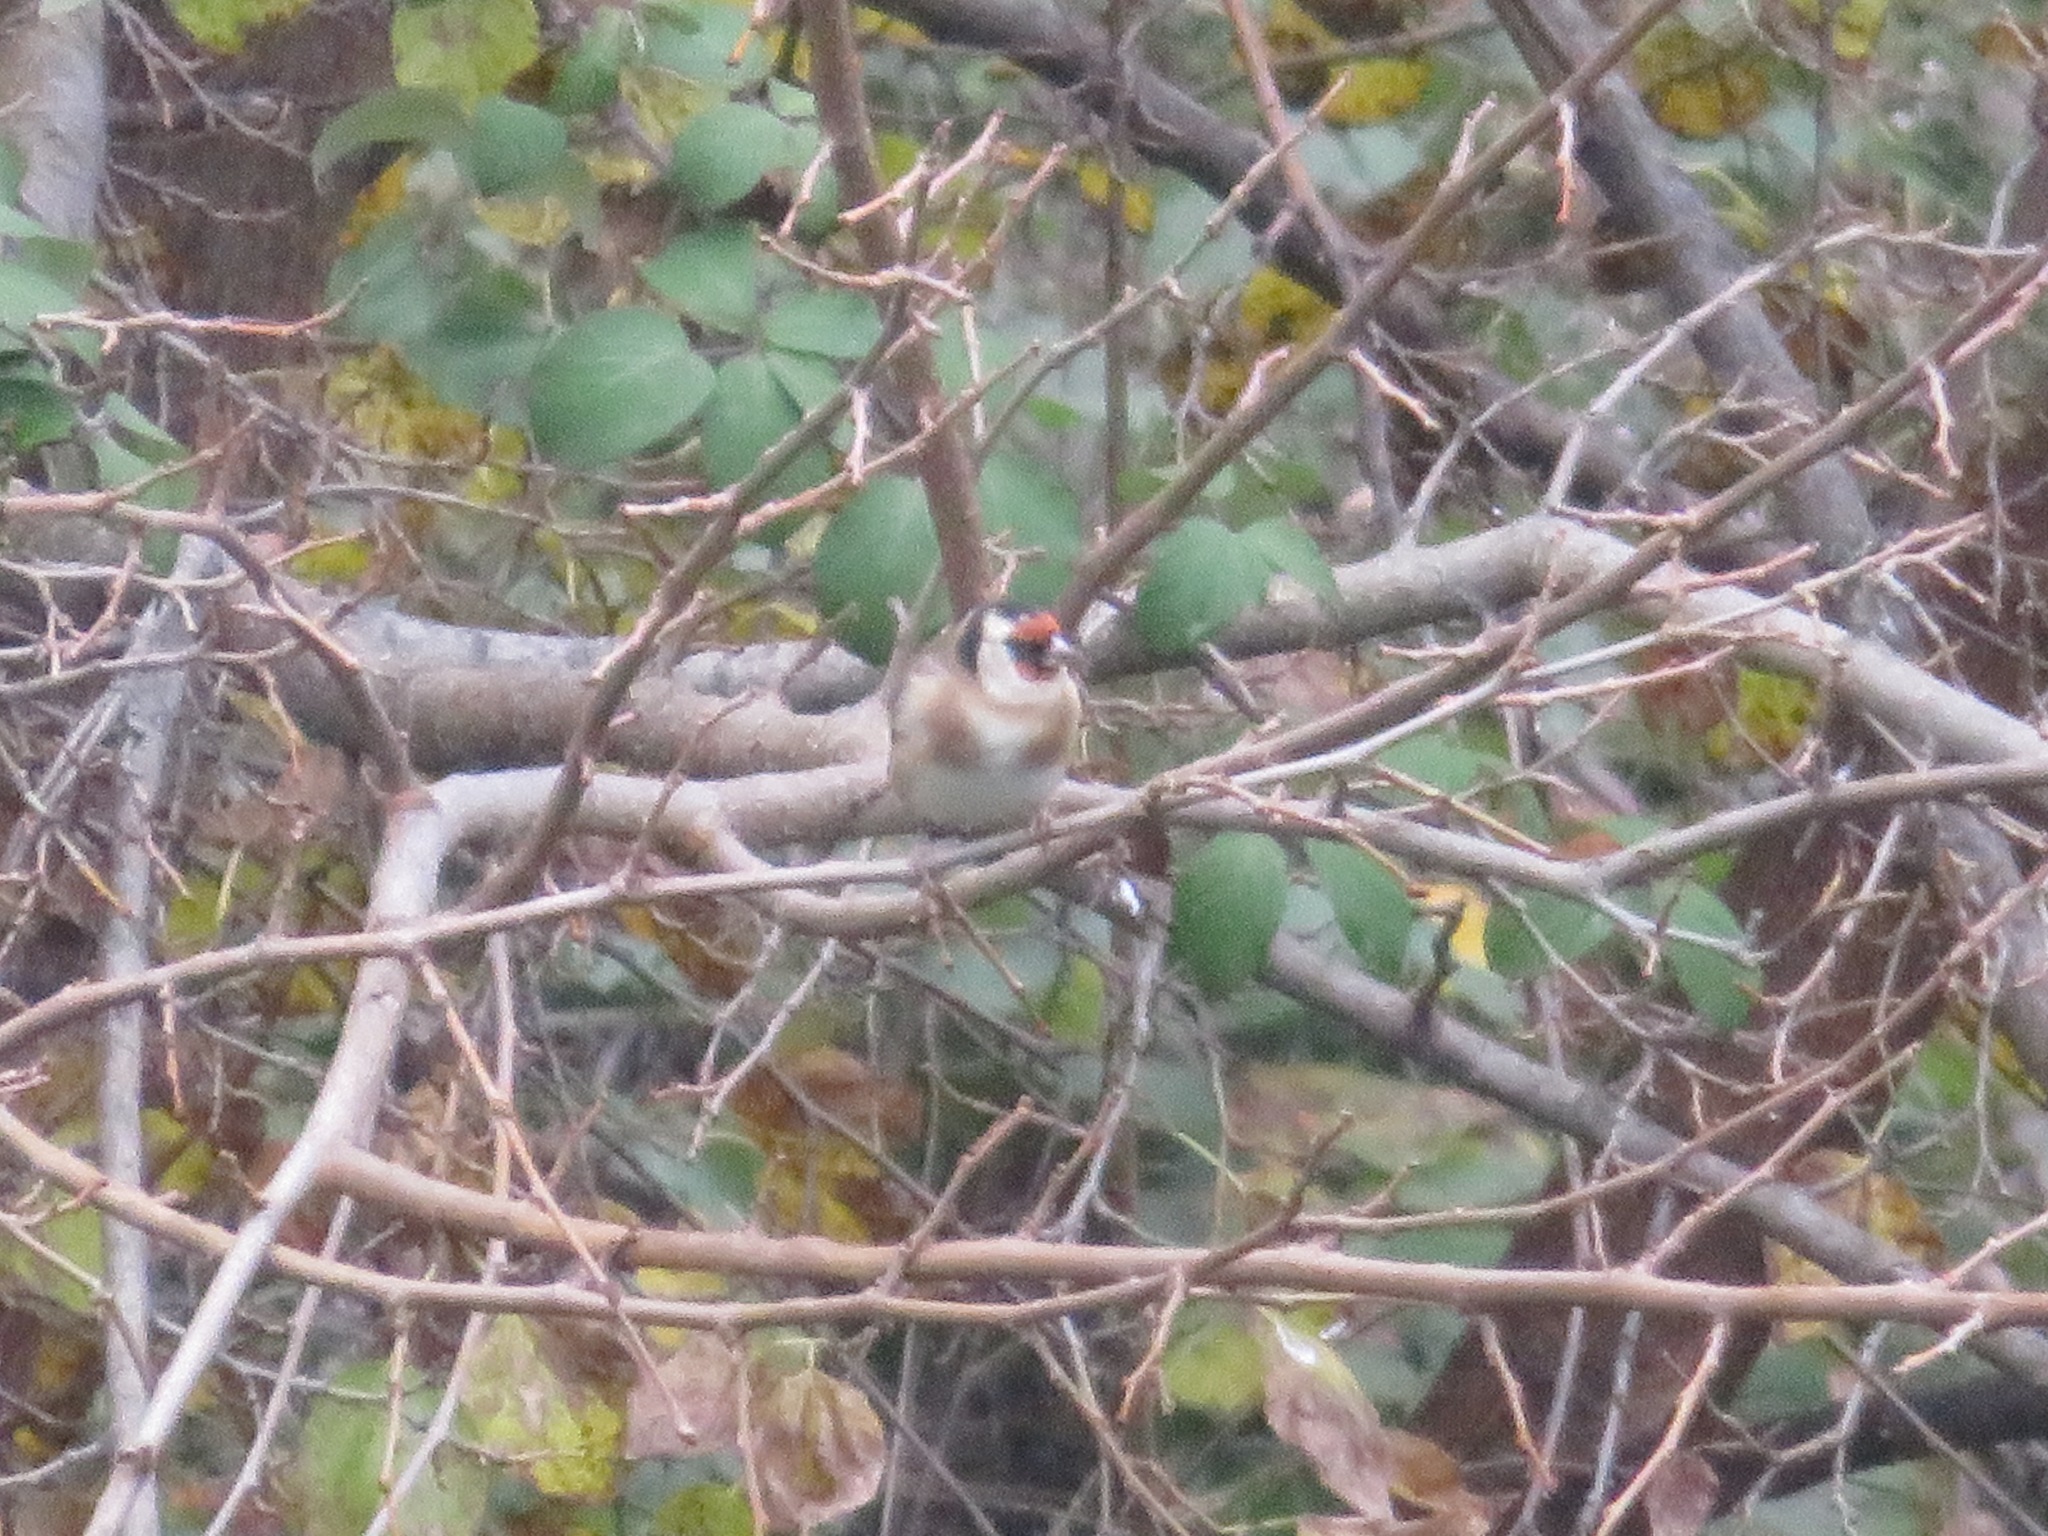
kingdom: Animalia
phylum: Chordata
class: Aves
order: Passeriformes
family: Fringillidae
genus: Carduelis
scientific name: Carduelis carduelis
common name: European goldfinch
